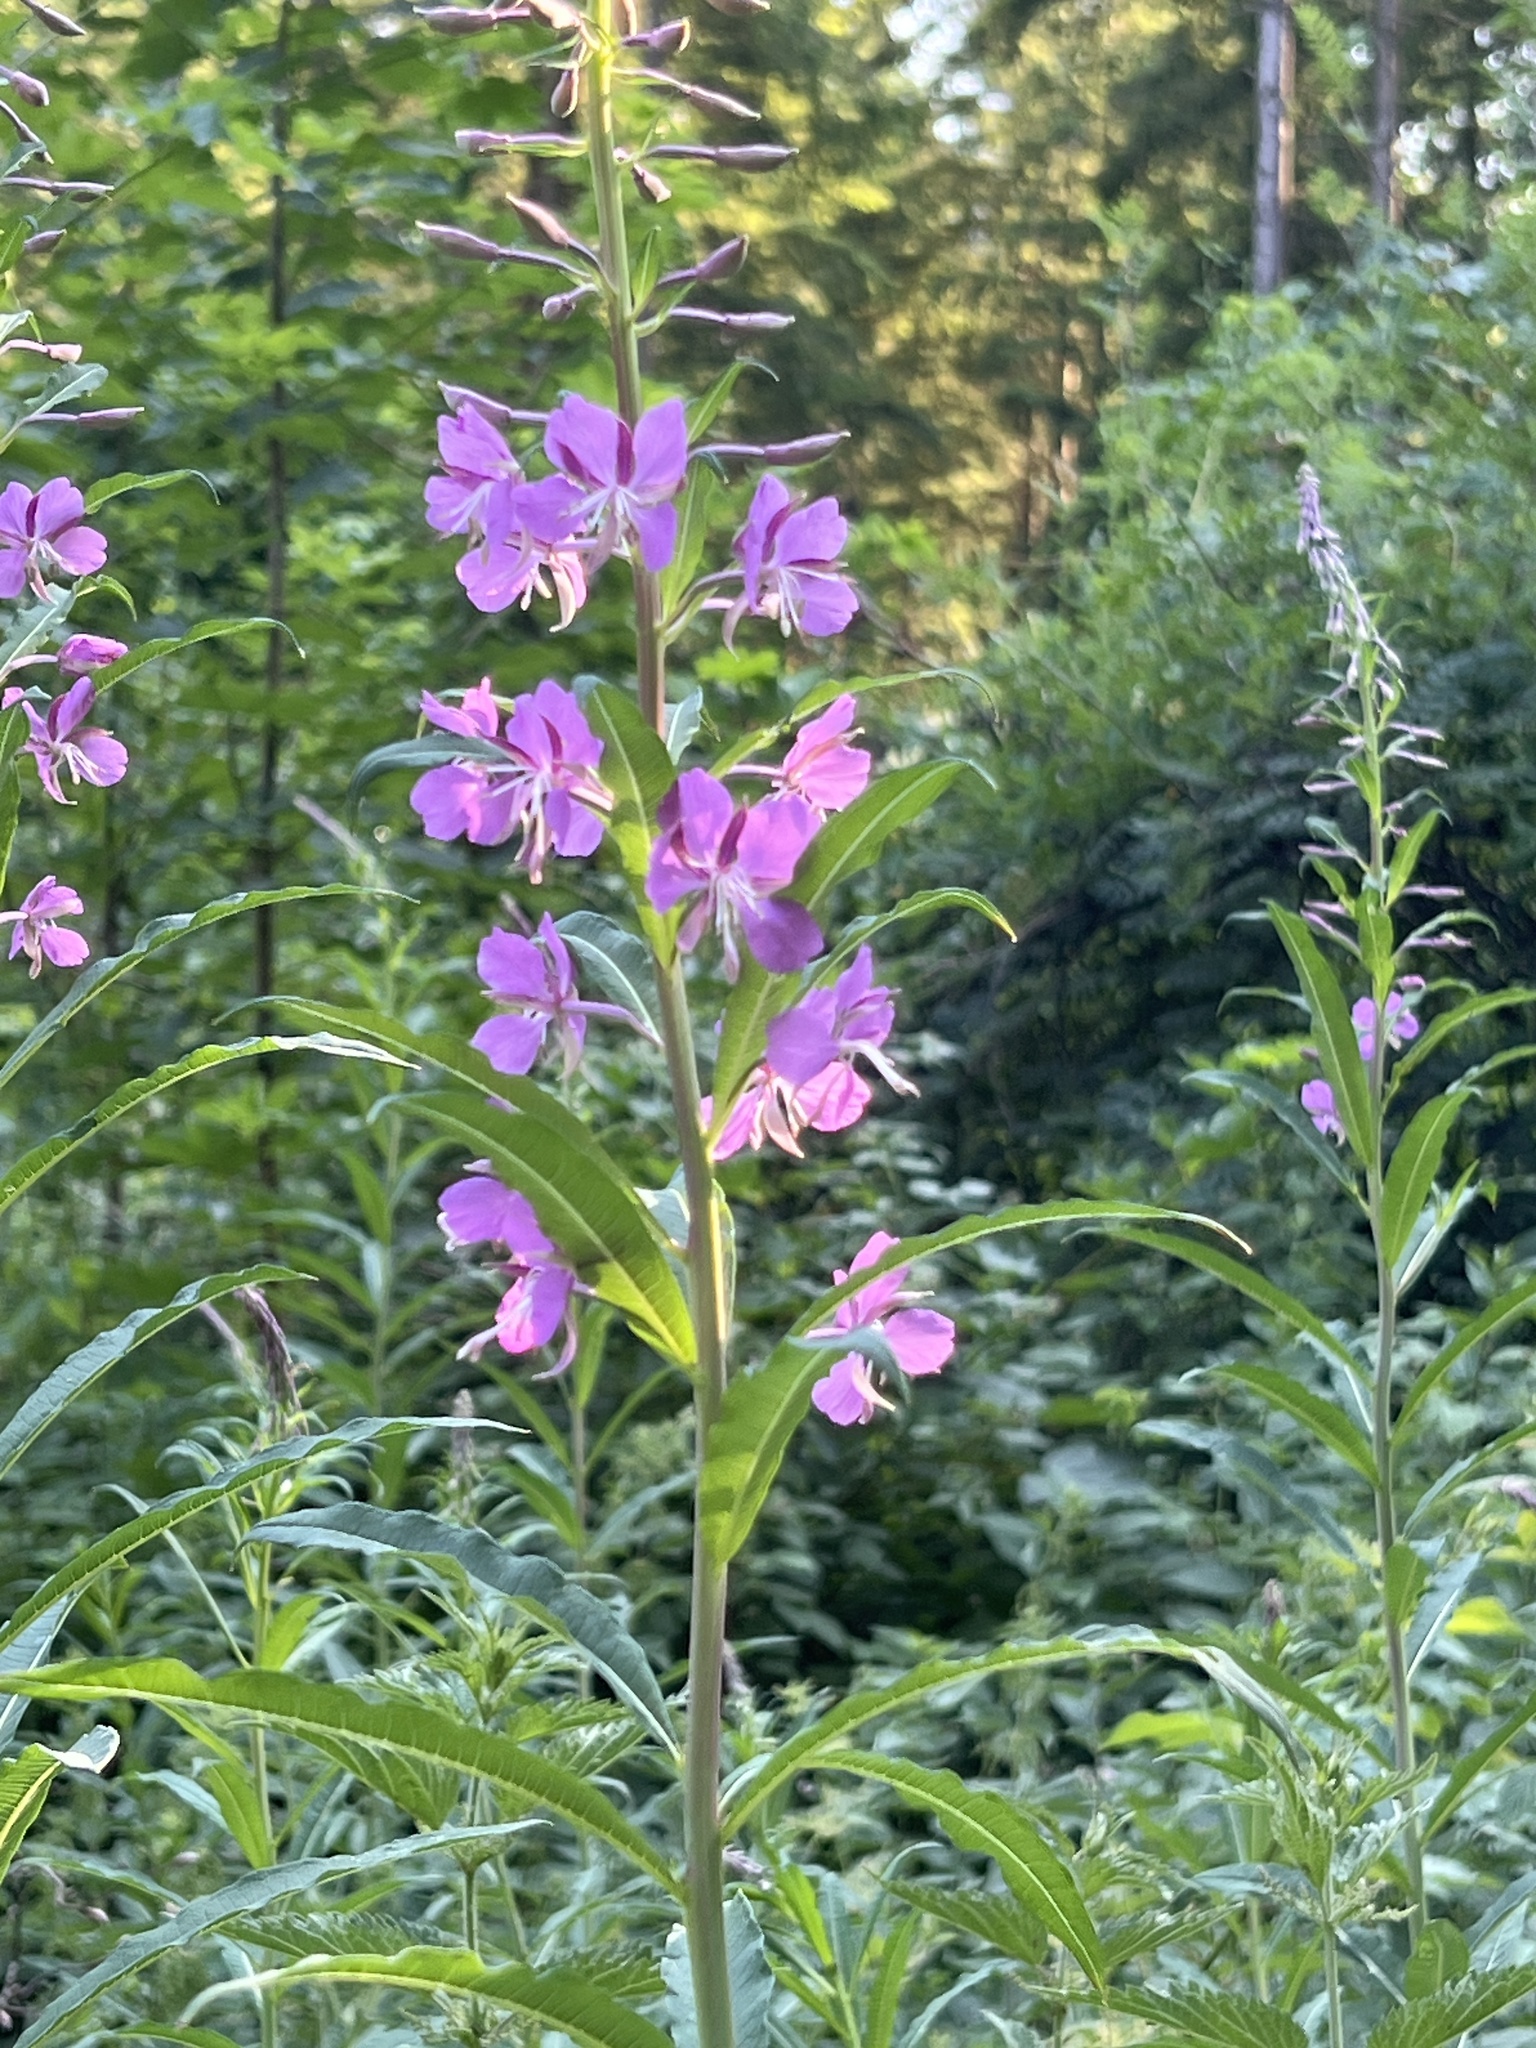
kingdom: Plantae
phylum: Tracheophyta
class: Magnoliopsida
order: Myrtales
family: Onagraceae
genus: Chamaenerion
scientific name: Chamaenerion angustifolium
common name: Fireweed
